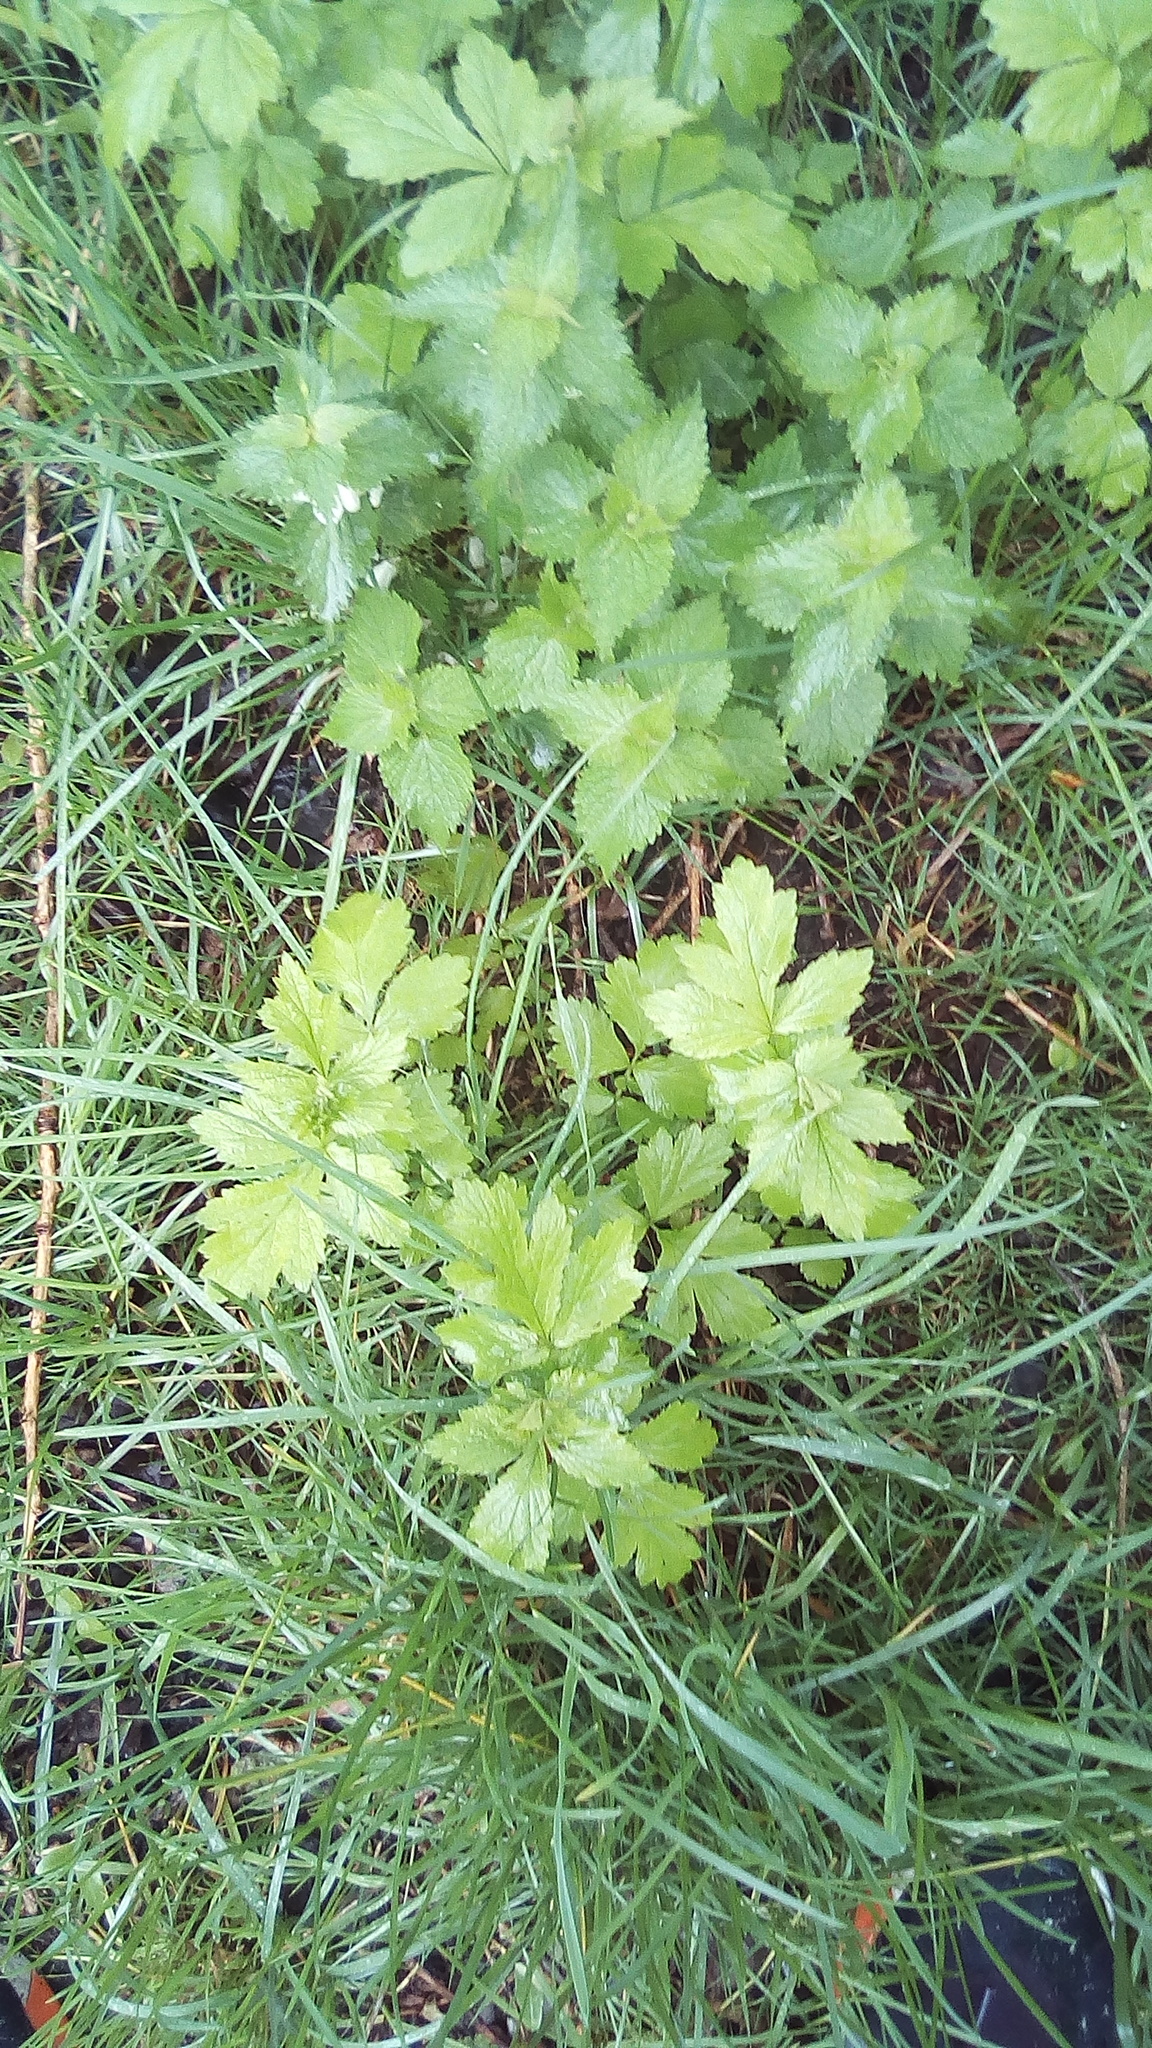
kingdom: Plantae
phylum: Tracheophyta
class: Magnoliopsida
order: Rosales
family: Rosaceae
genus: Geum
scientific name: Geum
